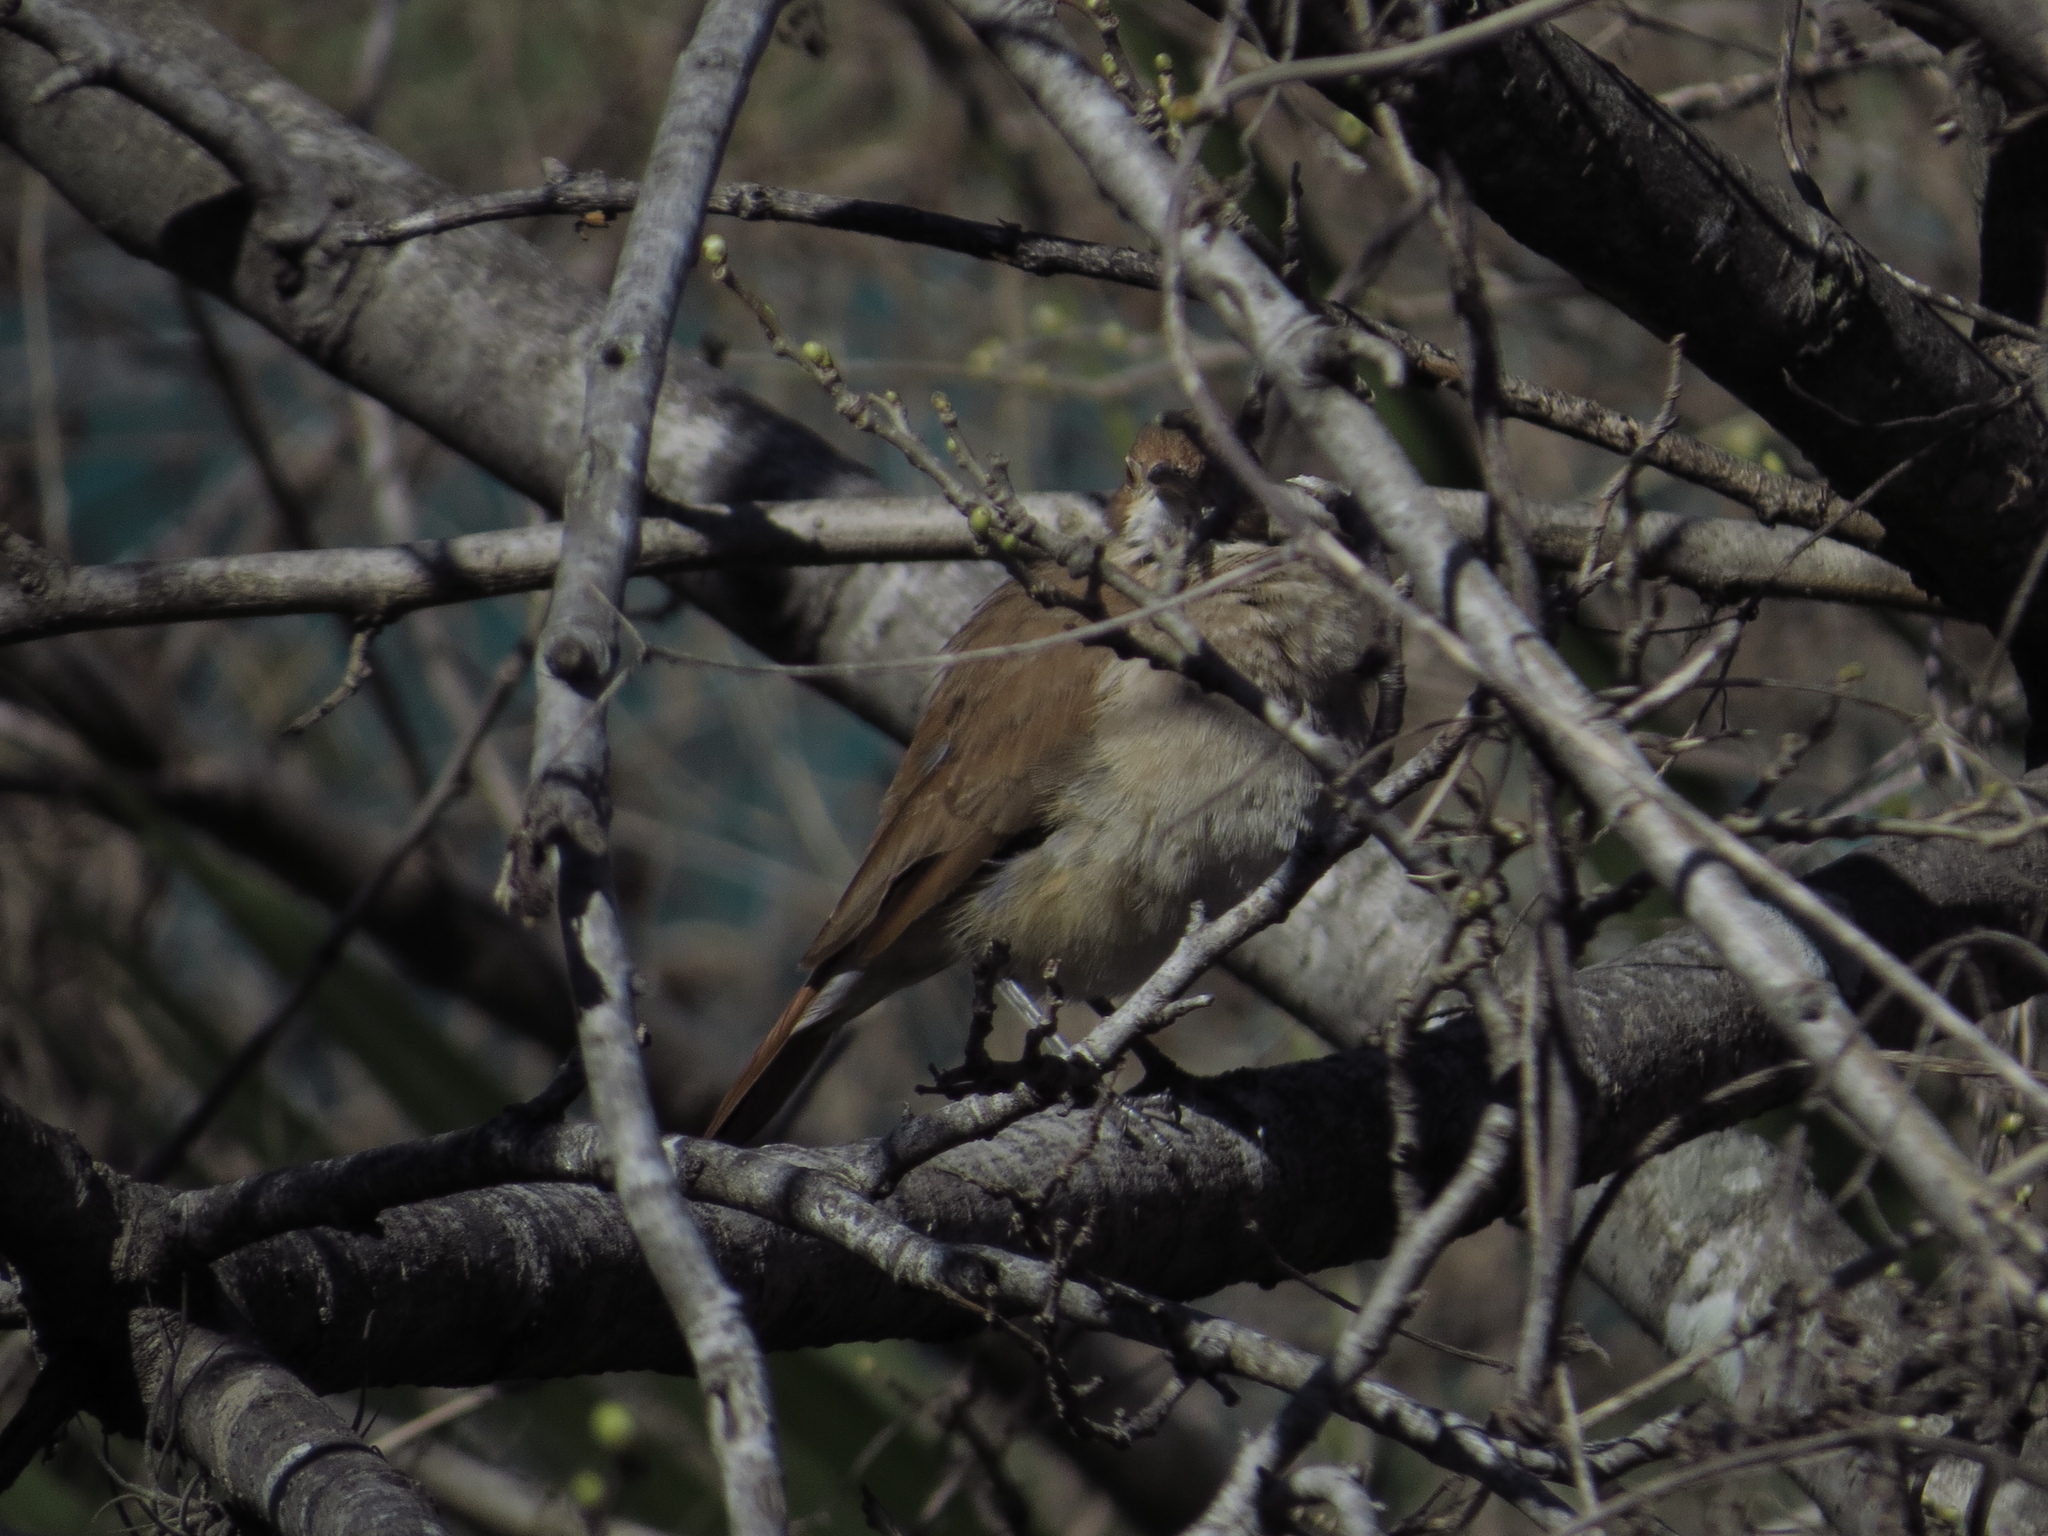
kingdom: Animalia
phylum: Chordata
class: Aves
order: Passeriformes
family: Furnariidae
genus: Furnarius
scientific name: Furnarius rufus
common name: Rufous hornero
